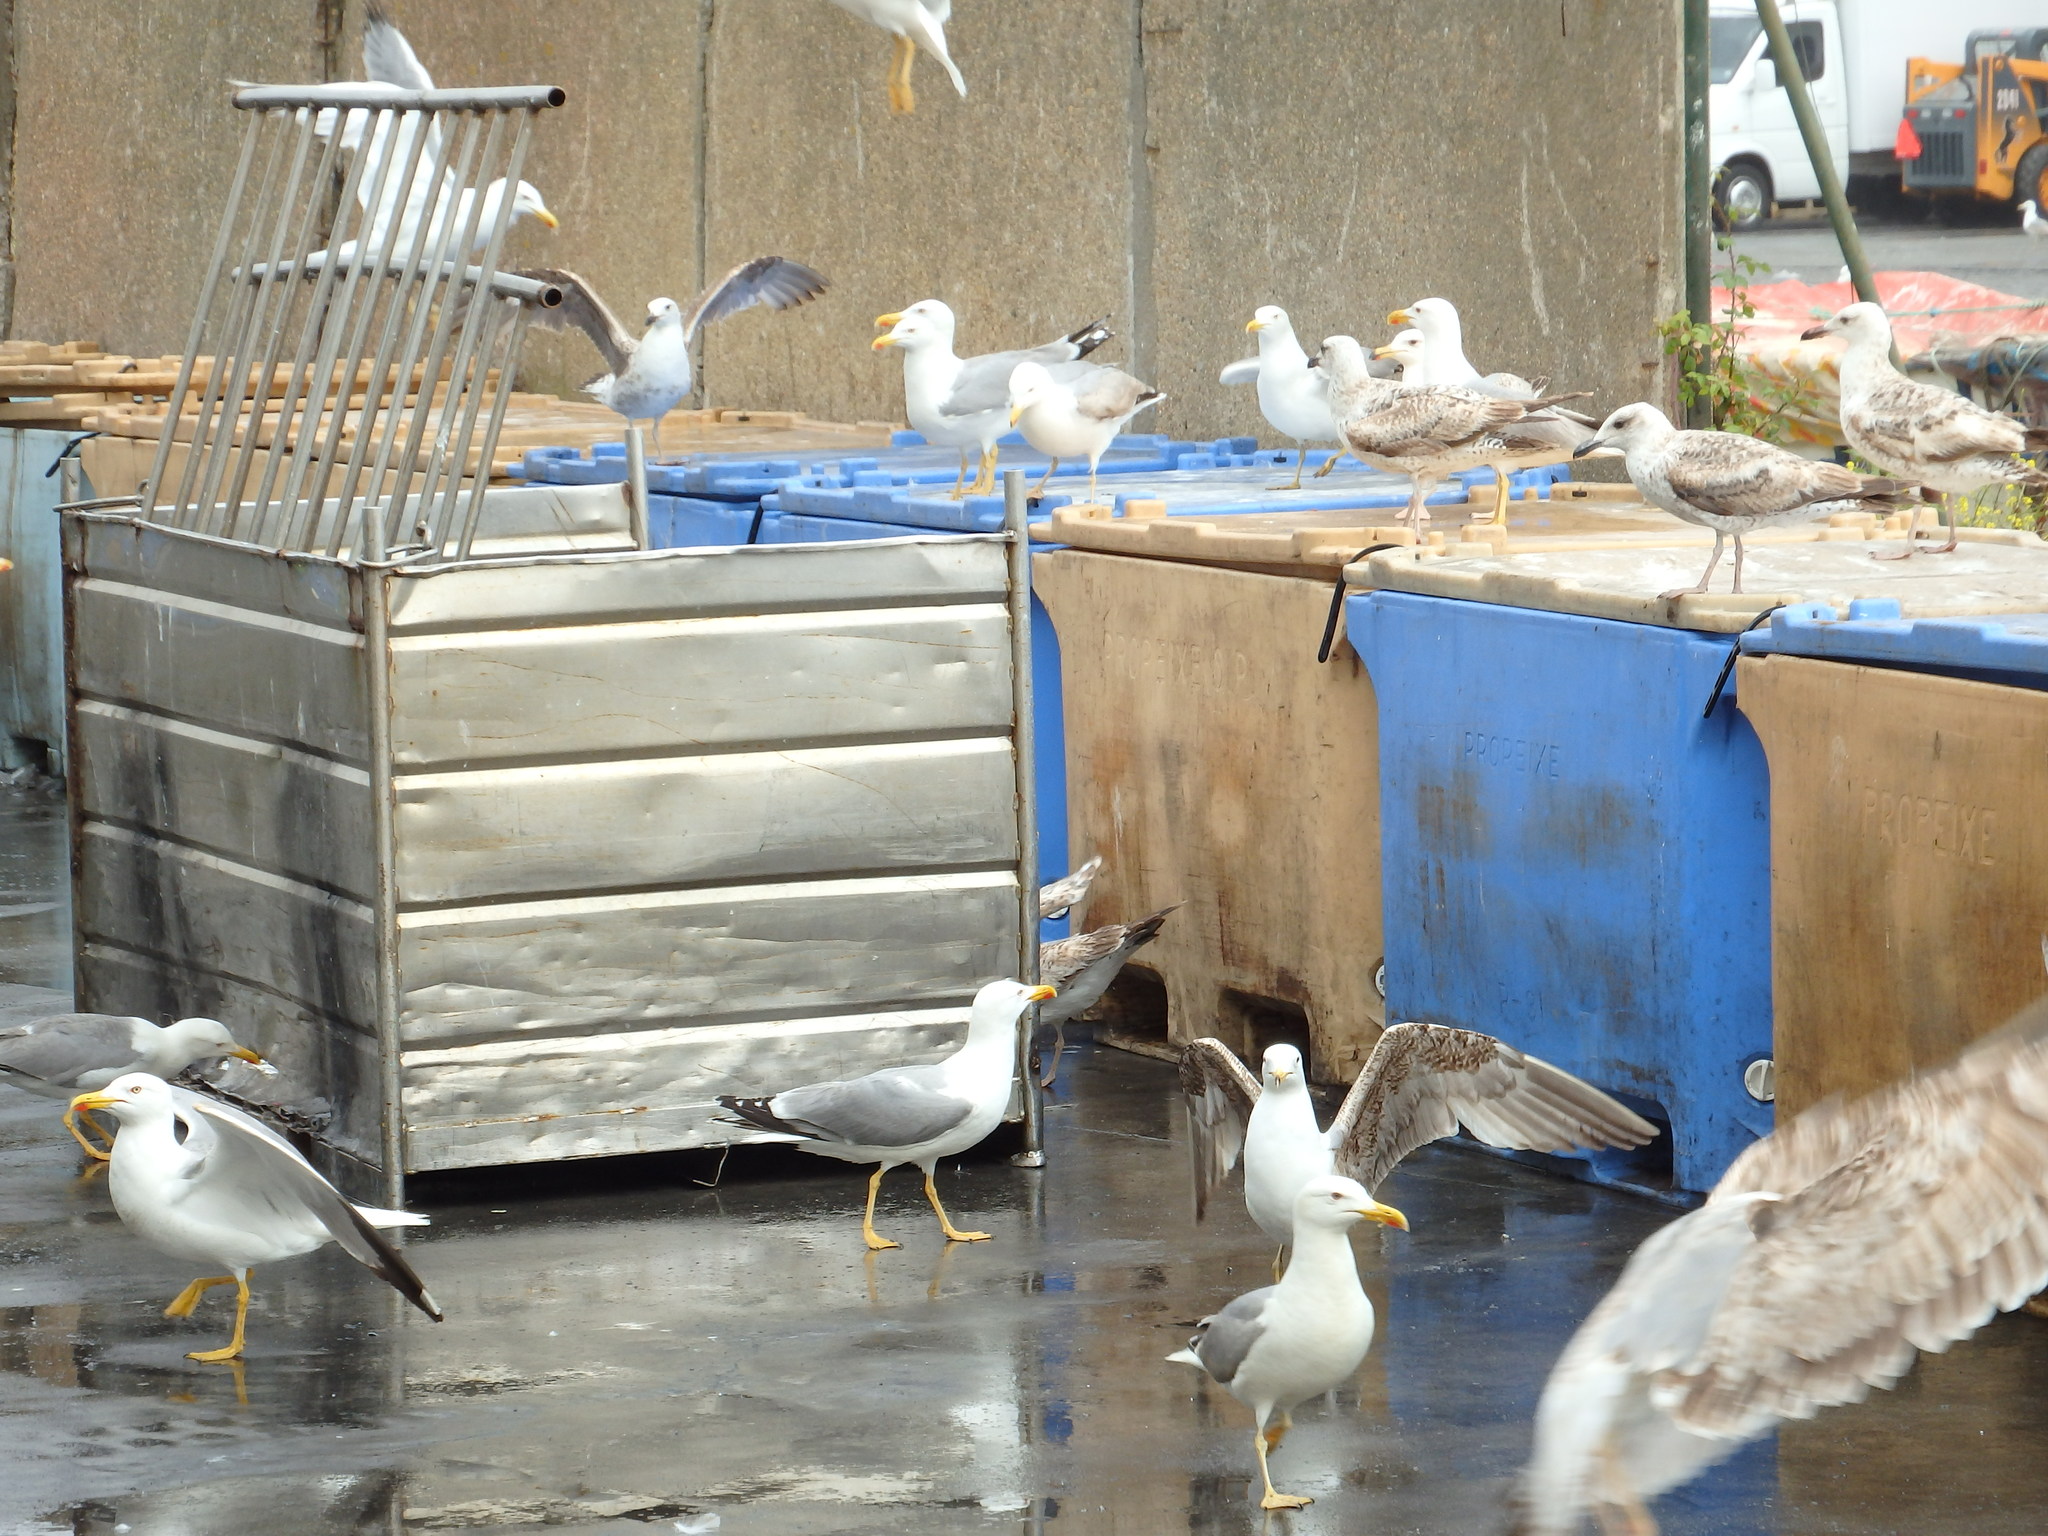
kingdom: Animalia
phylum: Chordata
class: Aves
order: Charadriiformes
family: Laridae
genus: Larus
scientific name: Larus michahellis
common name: Yellow-legged gull
